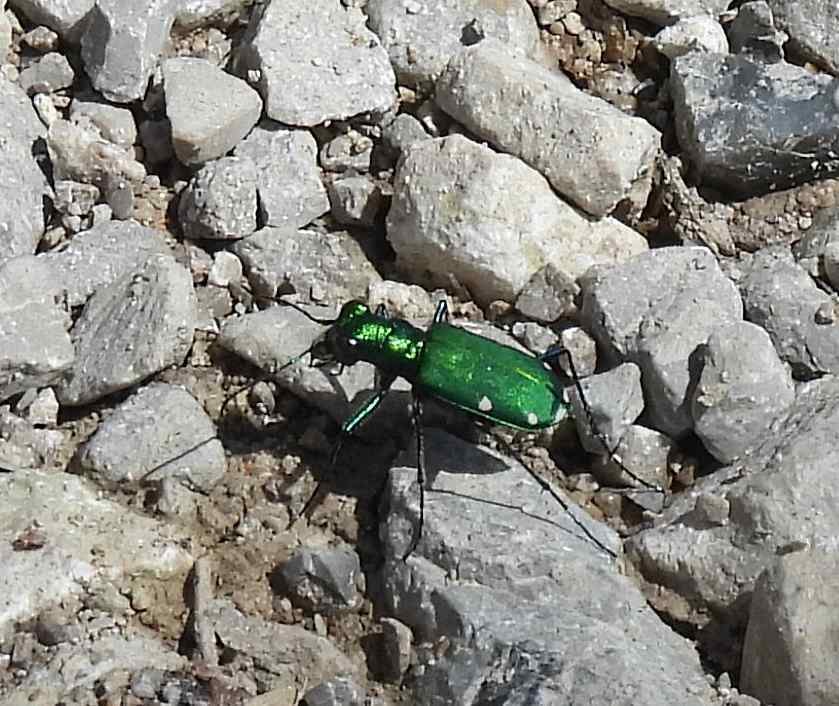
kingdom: Animalia
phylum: Arthropoda
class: Insecta
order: Coleoptera
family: Carabidae
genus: Cicindela
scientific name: Cicindela sexguttata
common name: Six-spotted tiger beetle
